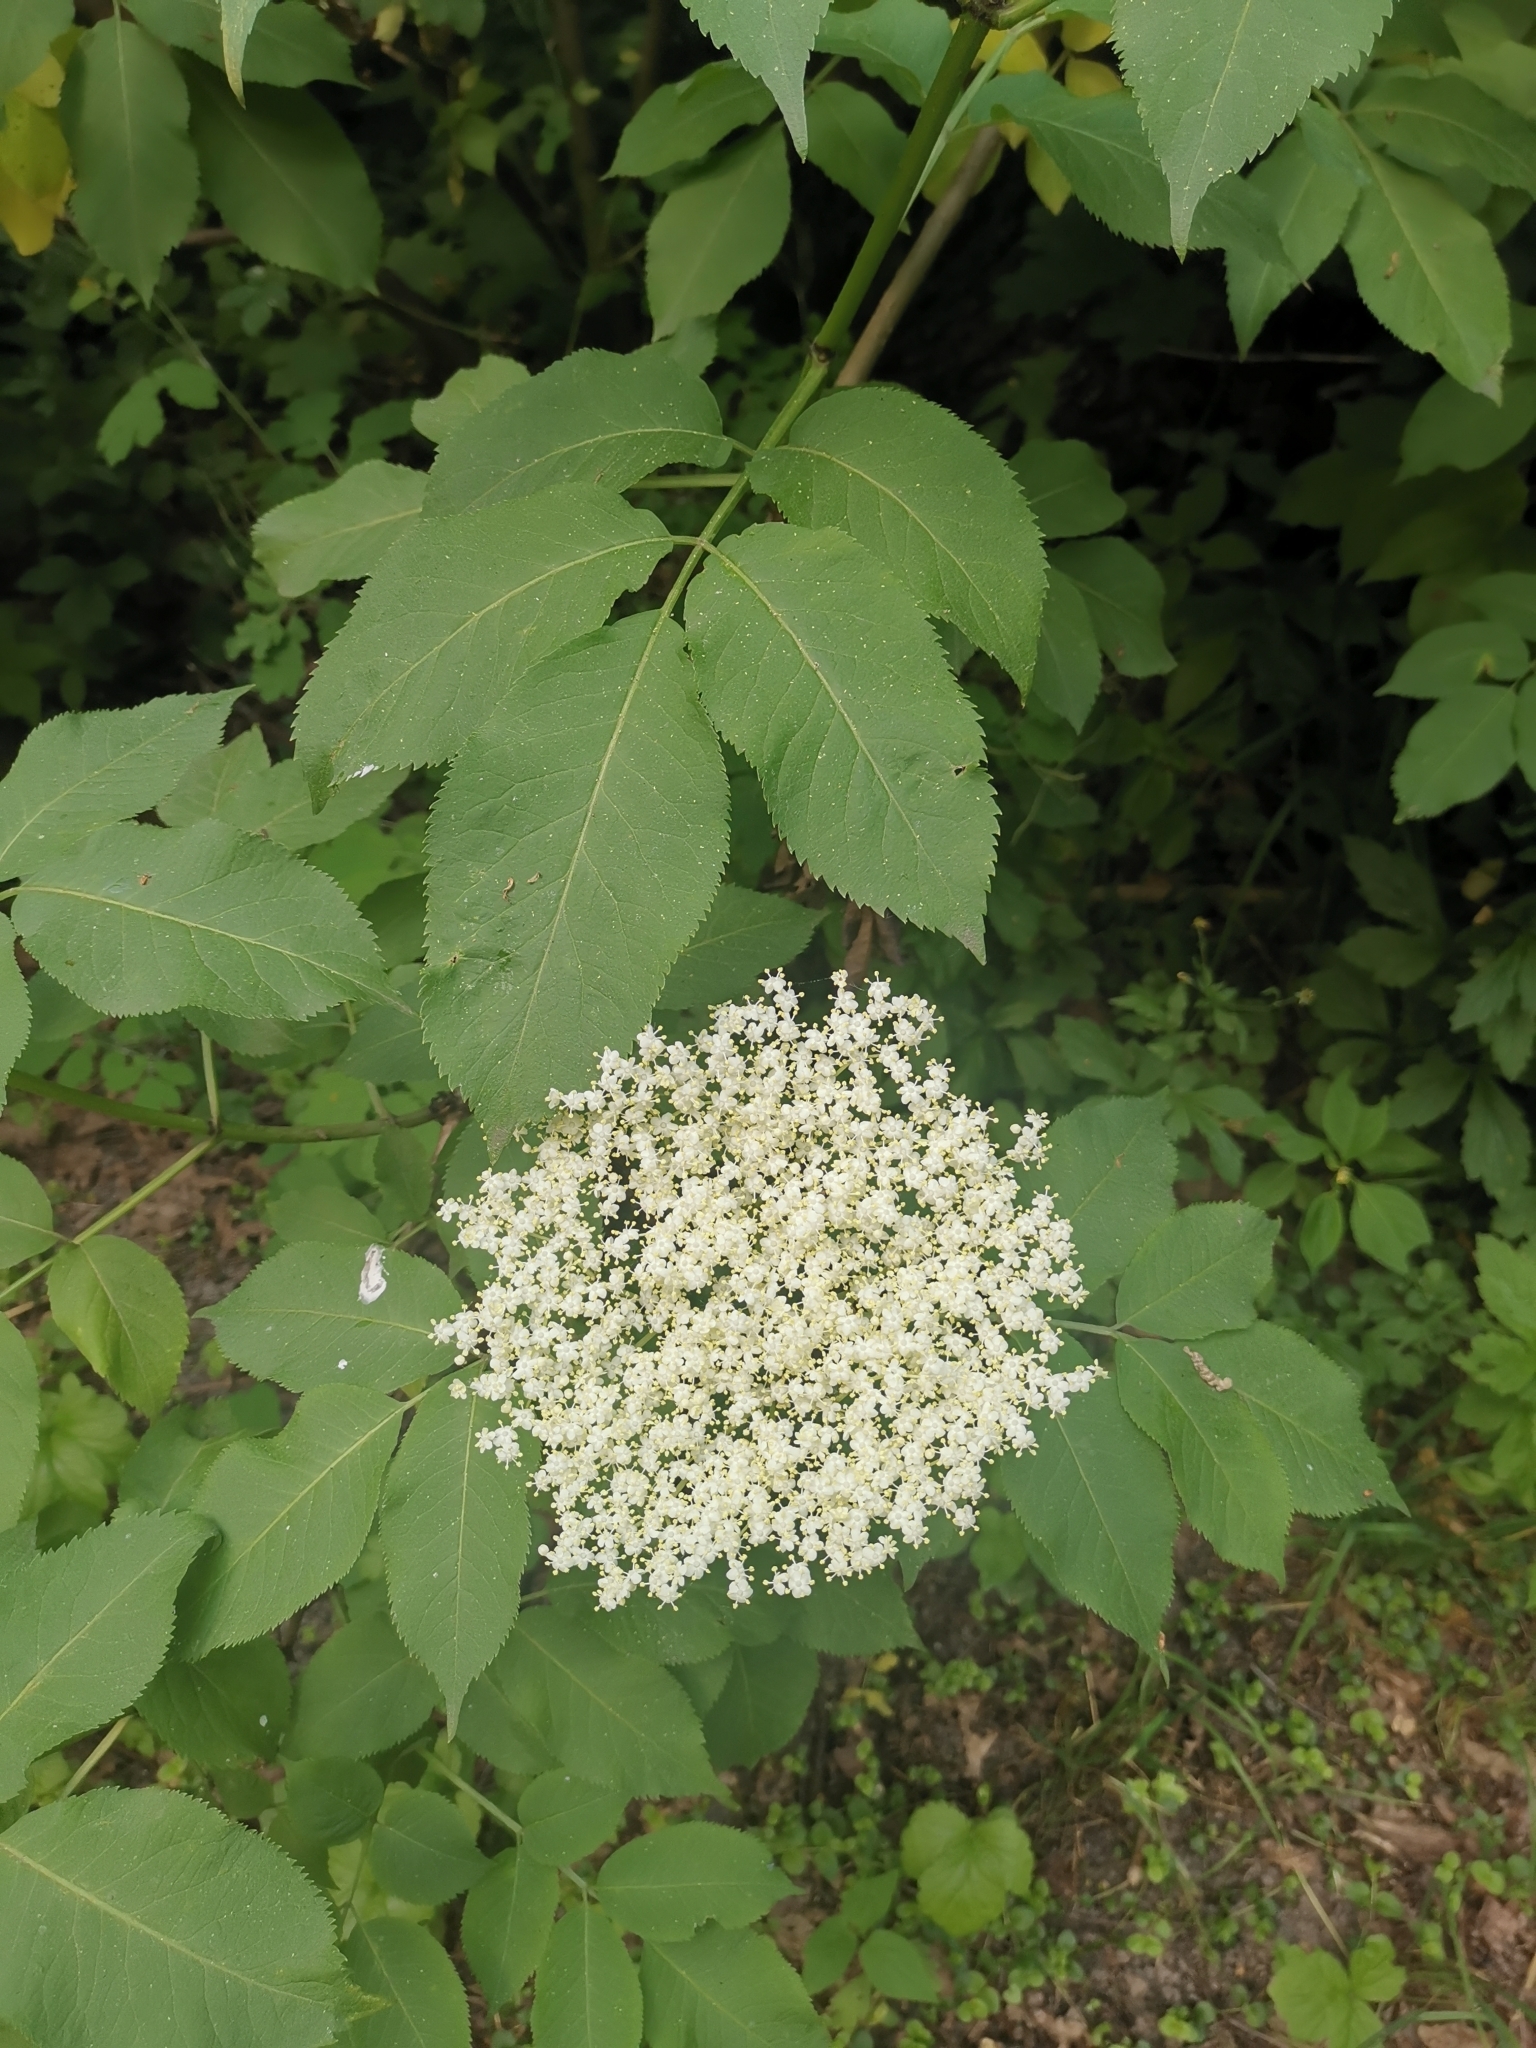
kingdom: Plantae
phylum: Tracheophyta
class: Magnoliopsida
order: Dipsacales
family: Viburnaceae
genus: Sambucus
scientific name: Sambucus nigra
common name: Elder
